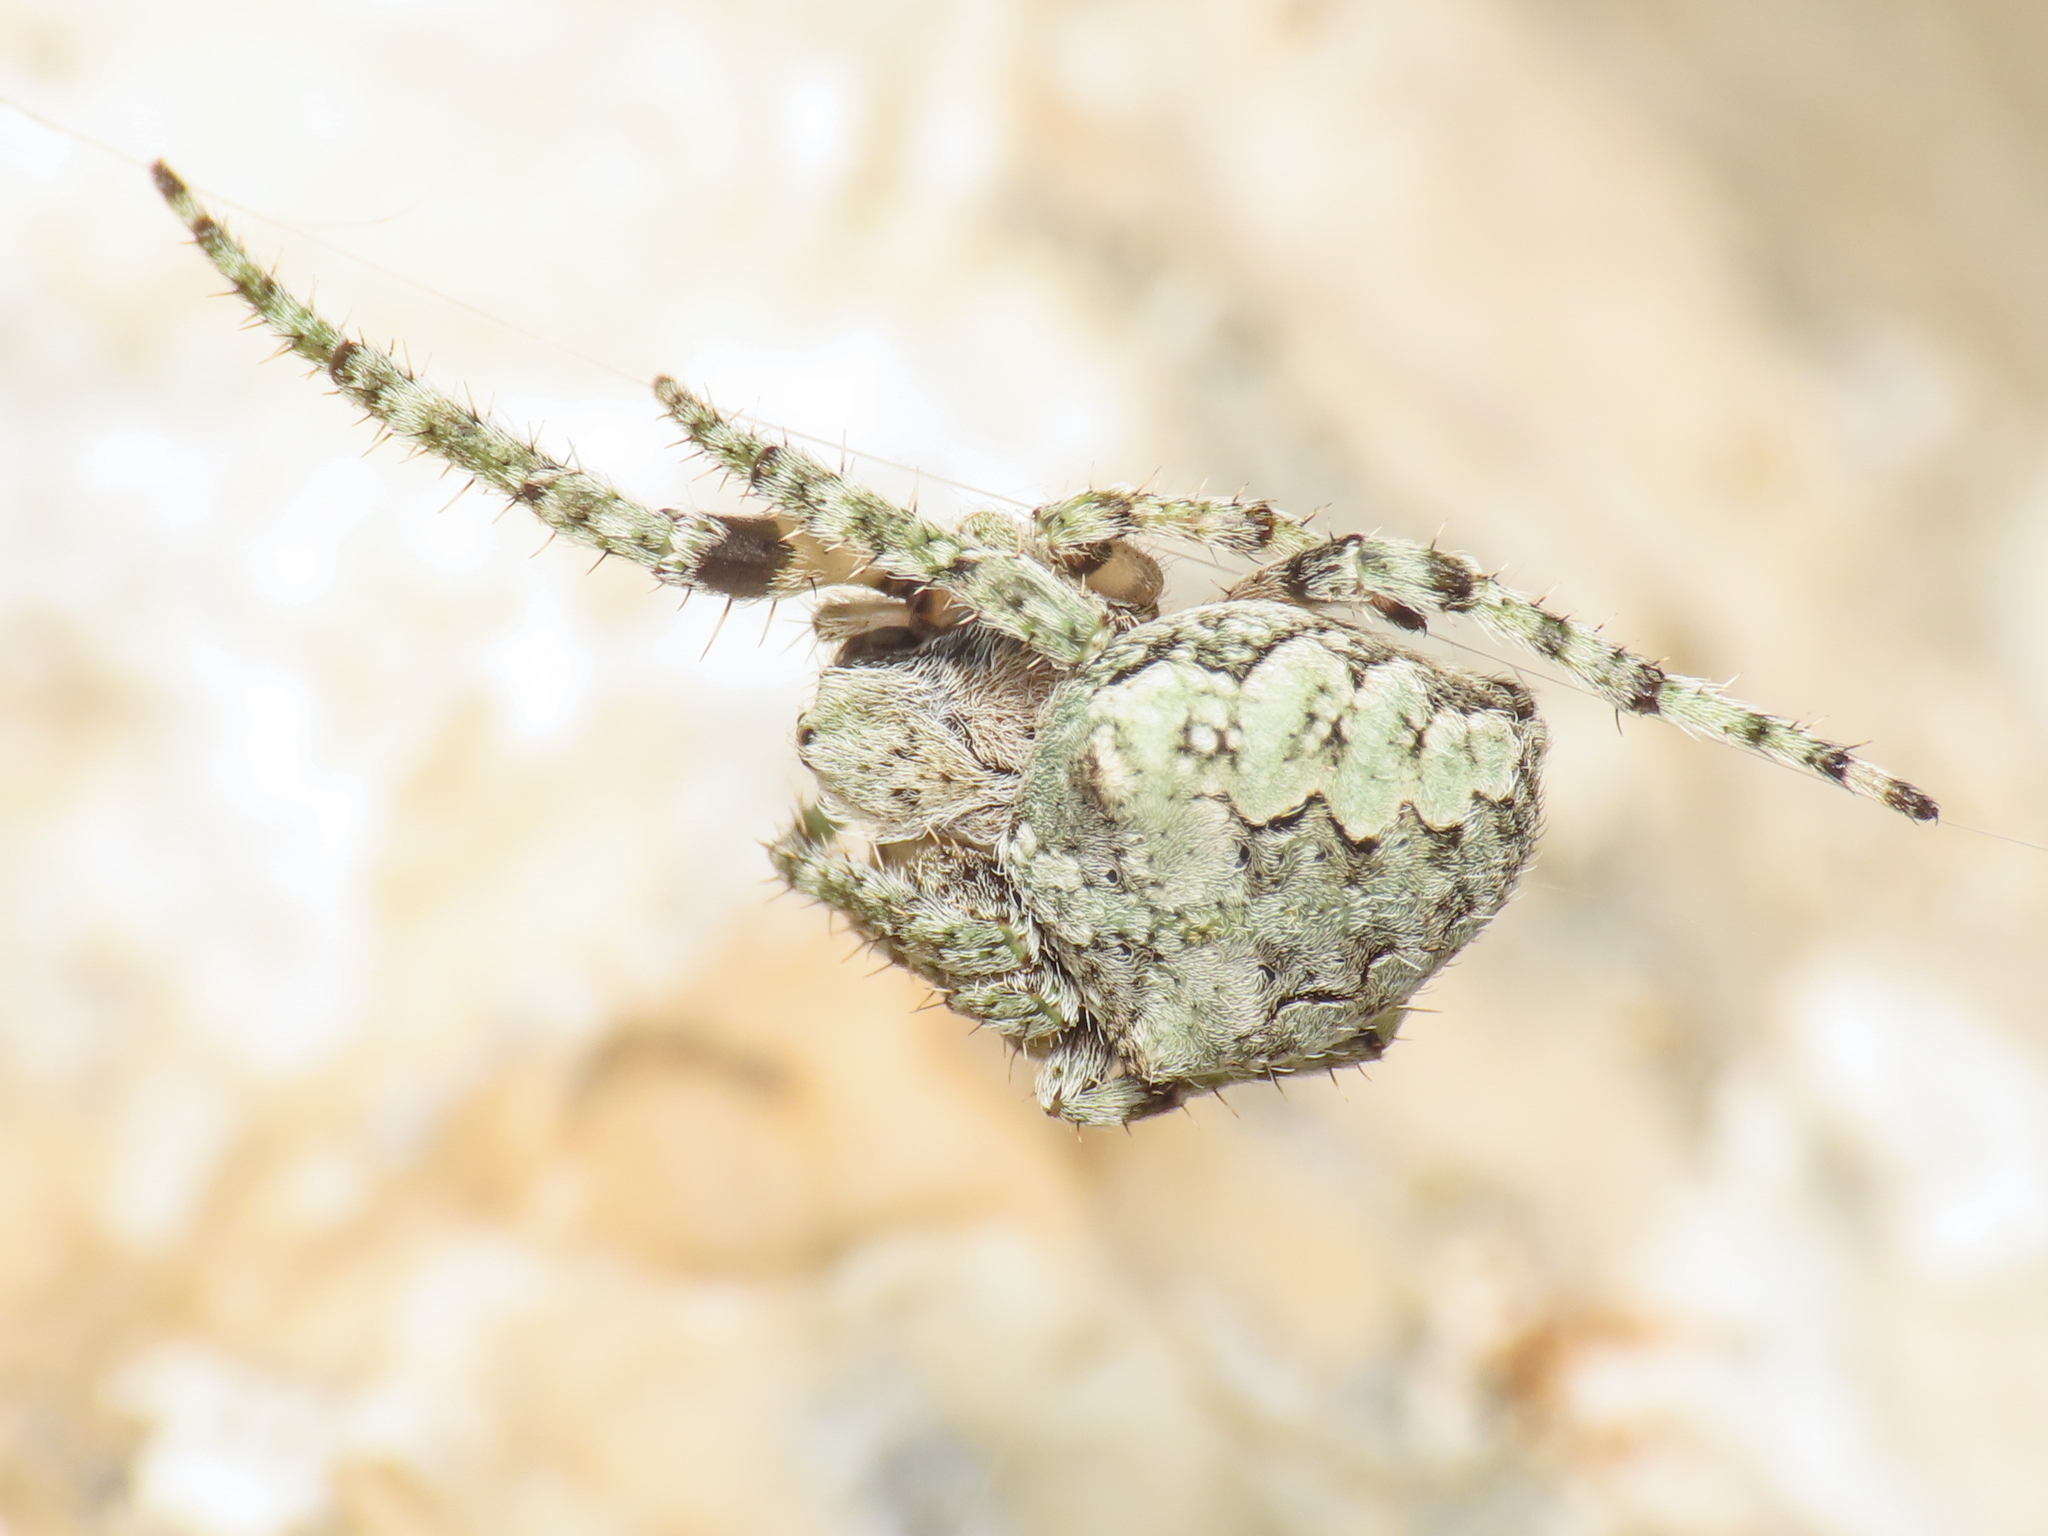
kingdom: Animalia
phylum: Arthropoda
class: Arachnida
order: Araneae
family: Araneidae
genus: Araneus
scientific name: Araneus circe
